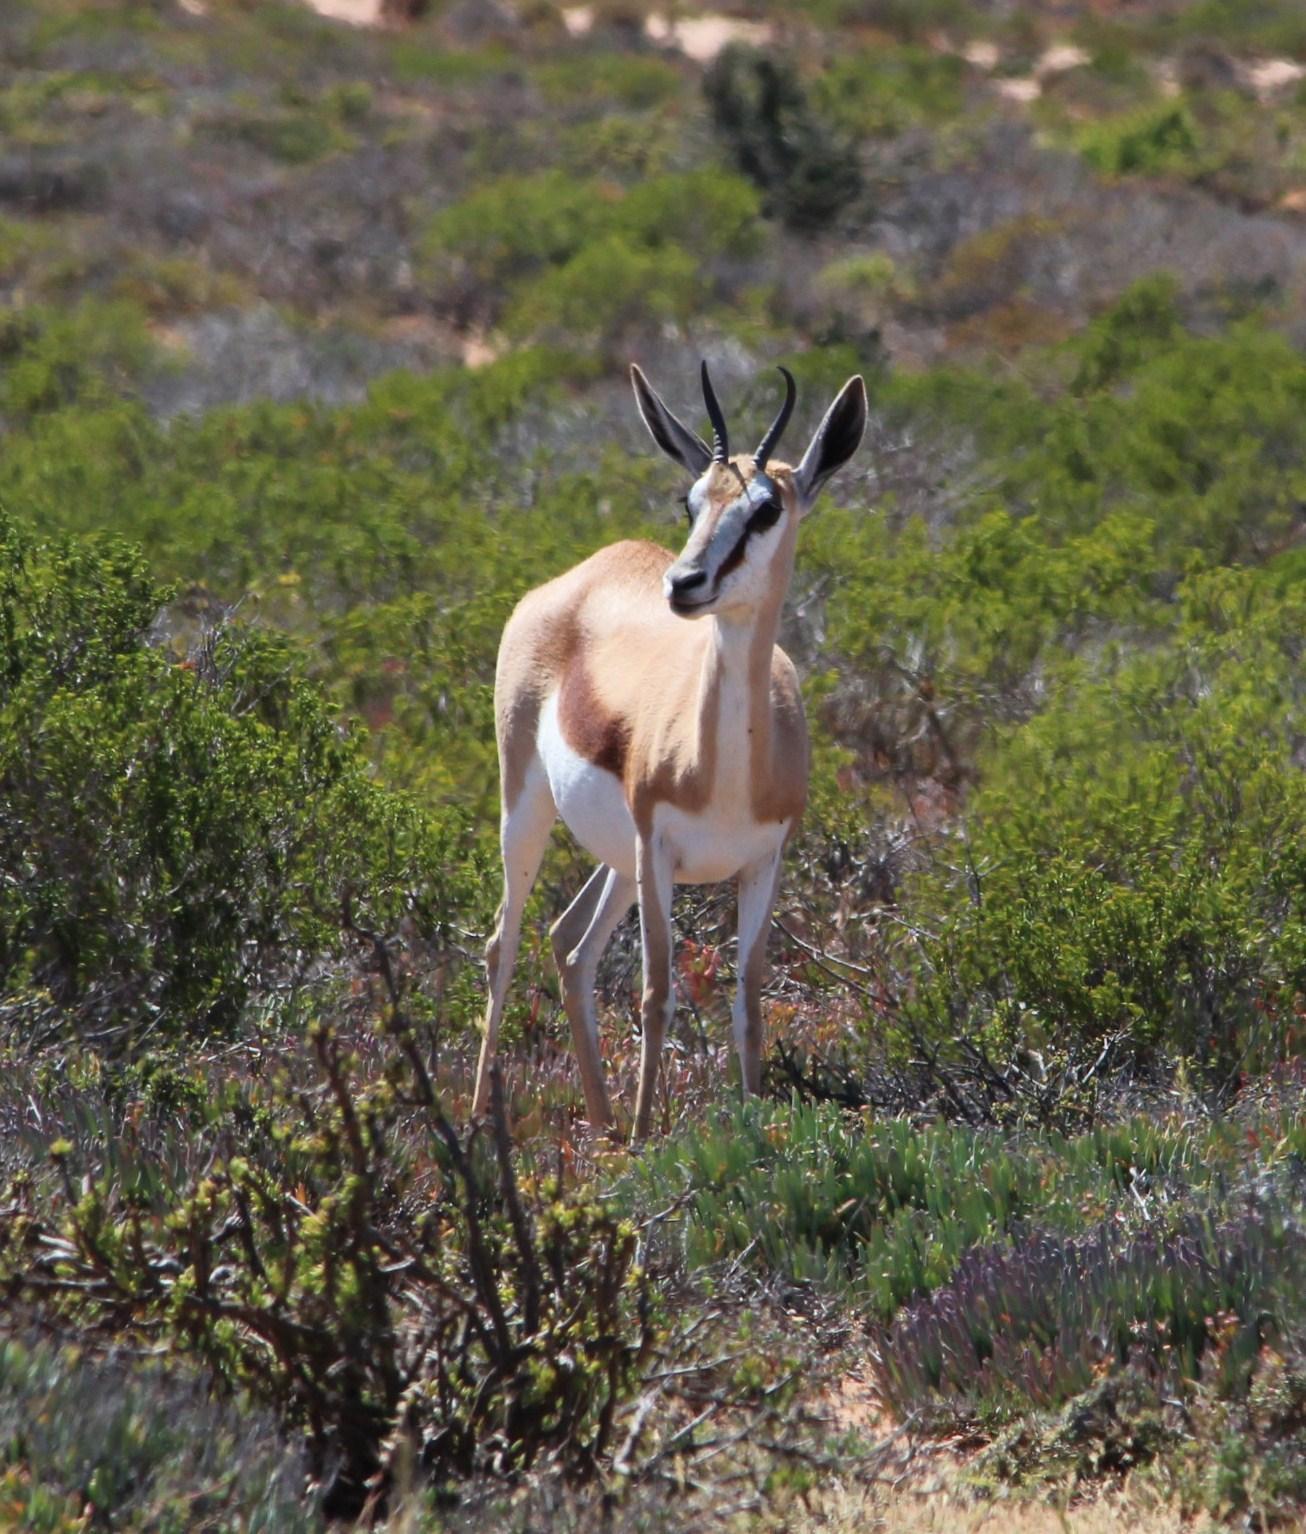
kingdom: Animalia
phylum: Chordata
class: Mammalia
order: Artiodactyla
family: Bovidae
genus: Antidorcas
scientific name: Antidorcas marsupialis
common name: Springbok
